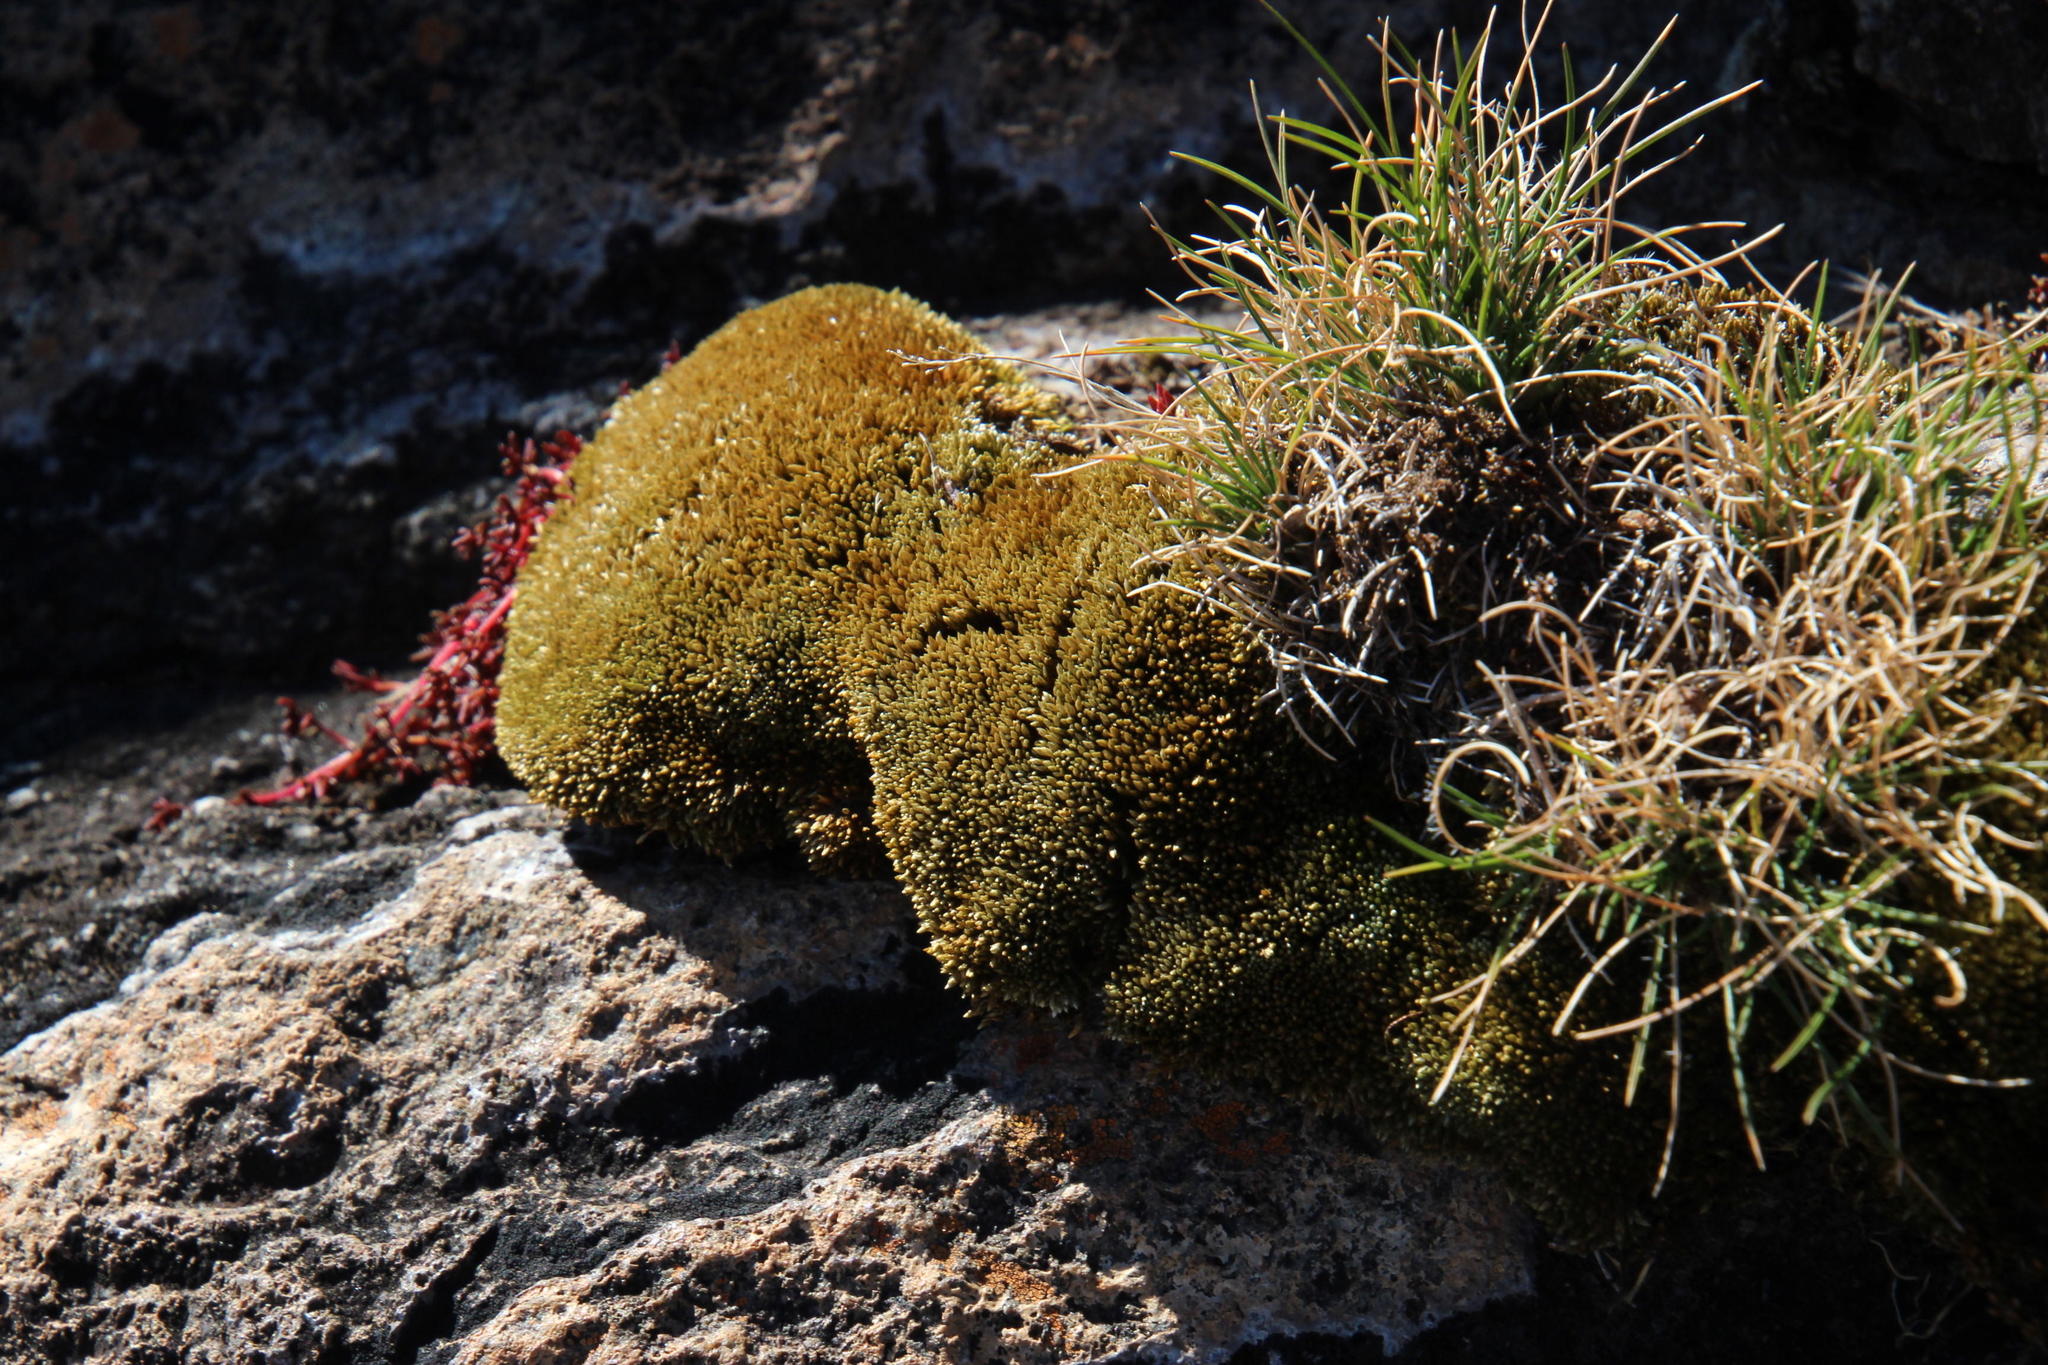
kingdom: Plantae
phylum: Bryophyta
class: Bryopsida
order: Dicranales
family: Ditrichaceae
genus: Ceratodon
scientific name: Ceratodon purpureus
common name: Redshank
